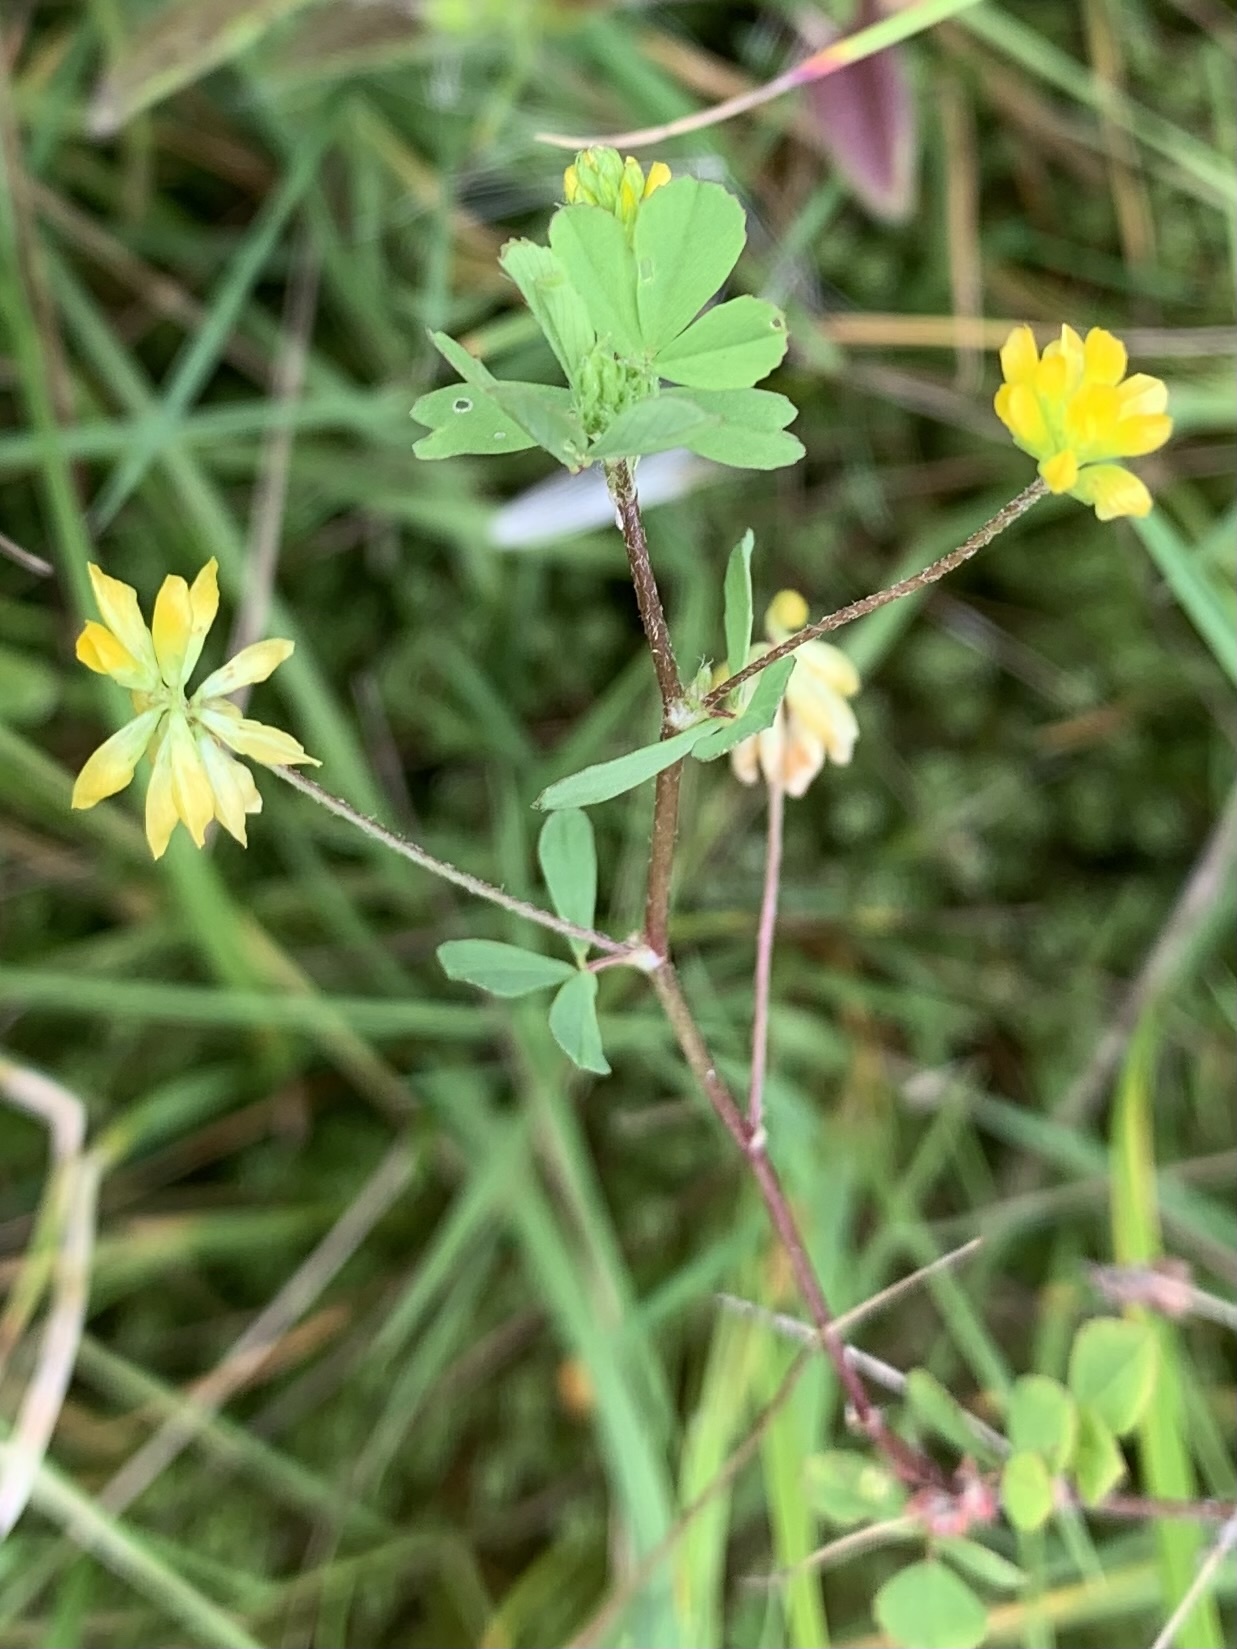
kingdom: Plantae
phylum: Tracheophyta
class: Magnoliopsida
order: Fabales
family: Fabaceae
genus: Trifolium
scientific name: Trifolium dubium
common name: Suckling clover
